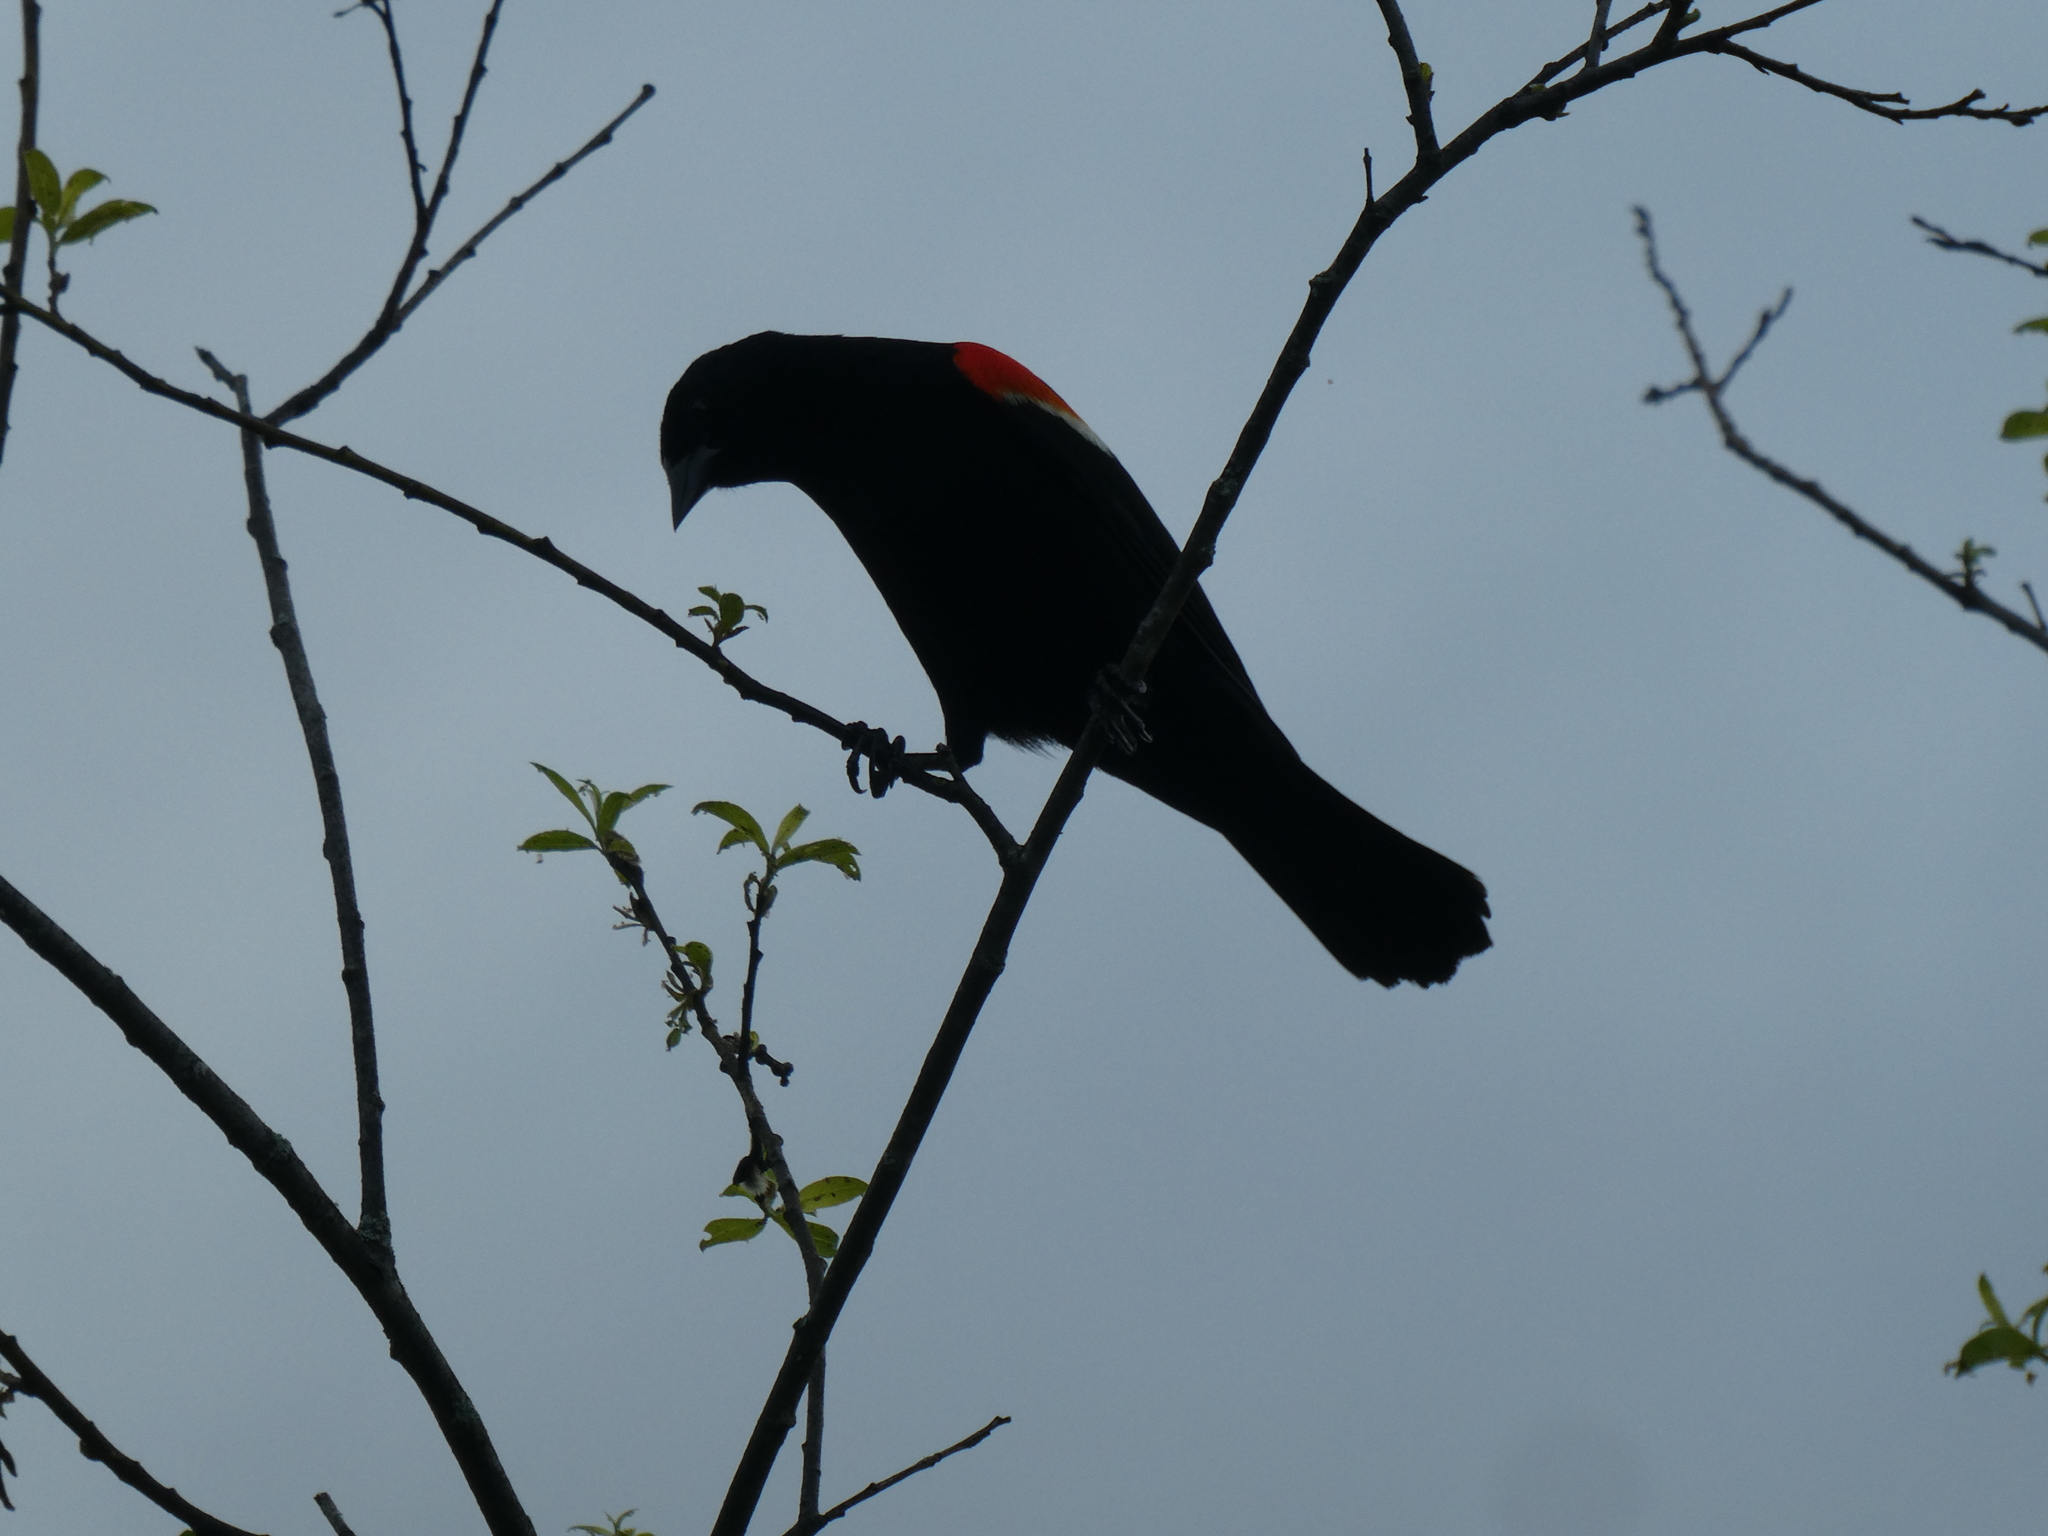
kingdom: Animalia
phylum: Chordata
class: Aves
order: Passeriformes
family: Icteridae
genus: Agelaius
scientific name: Agelaius phoeniceus
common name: Red-winged blackbird
